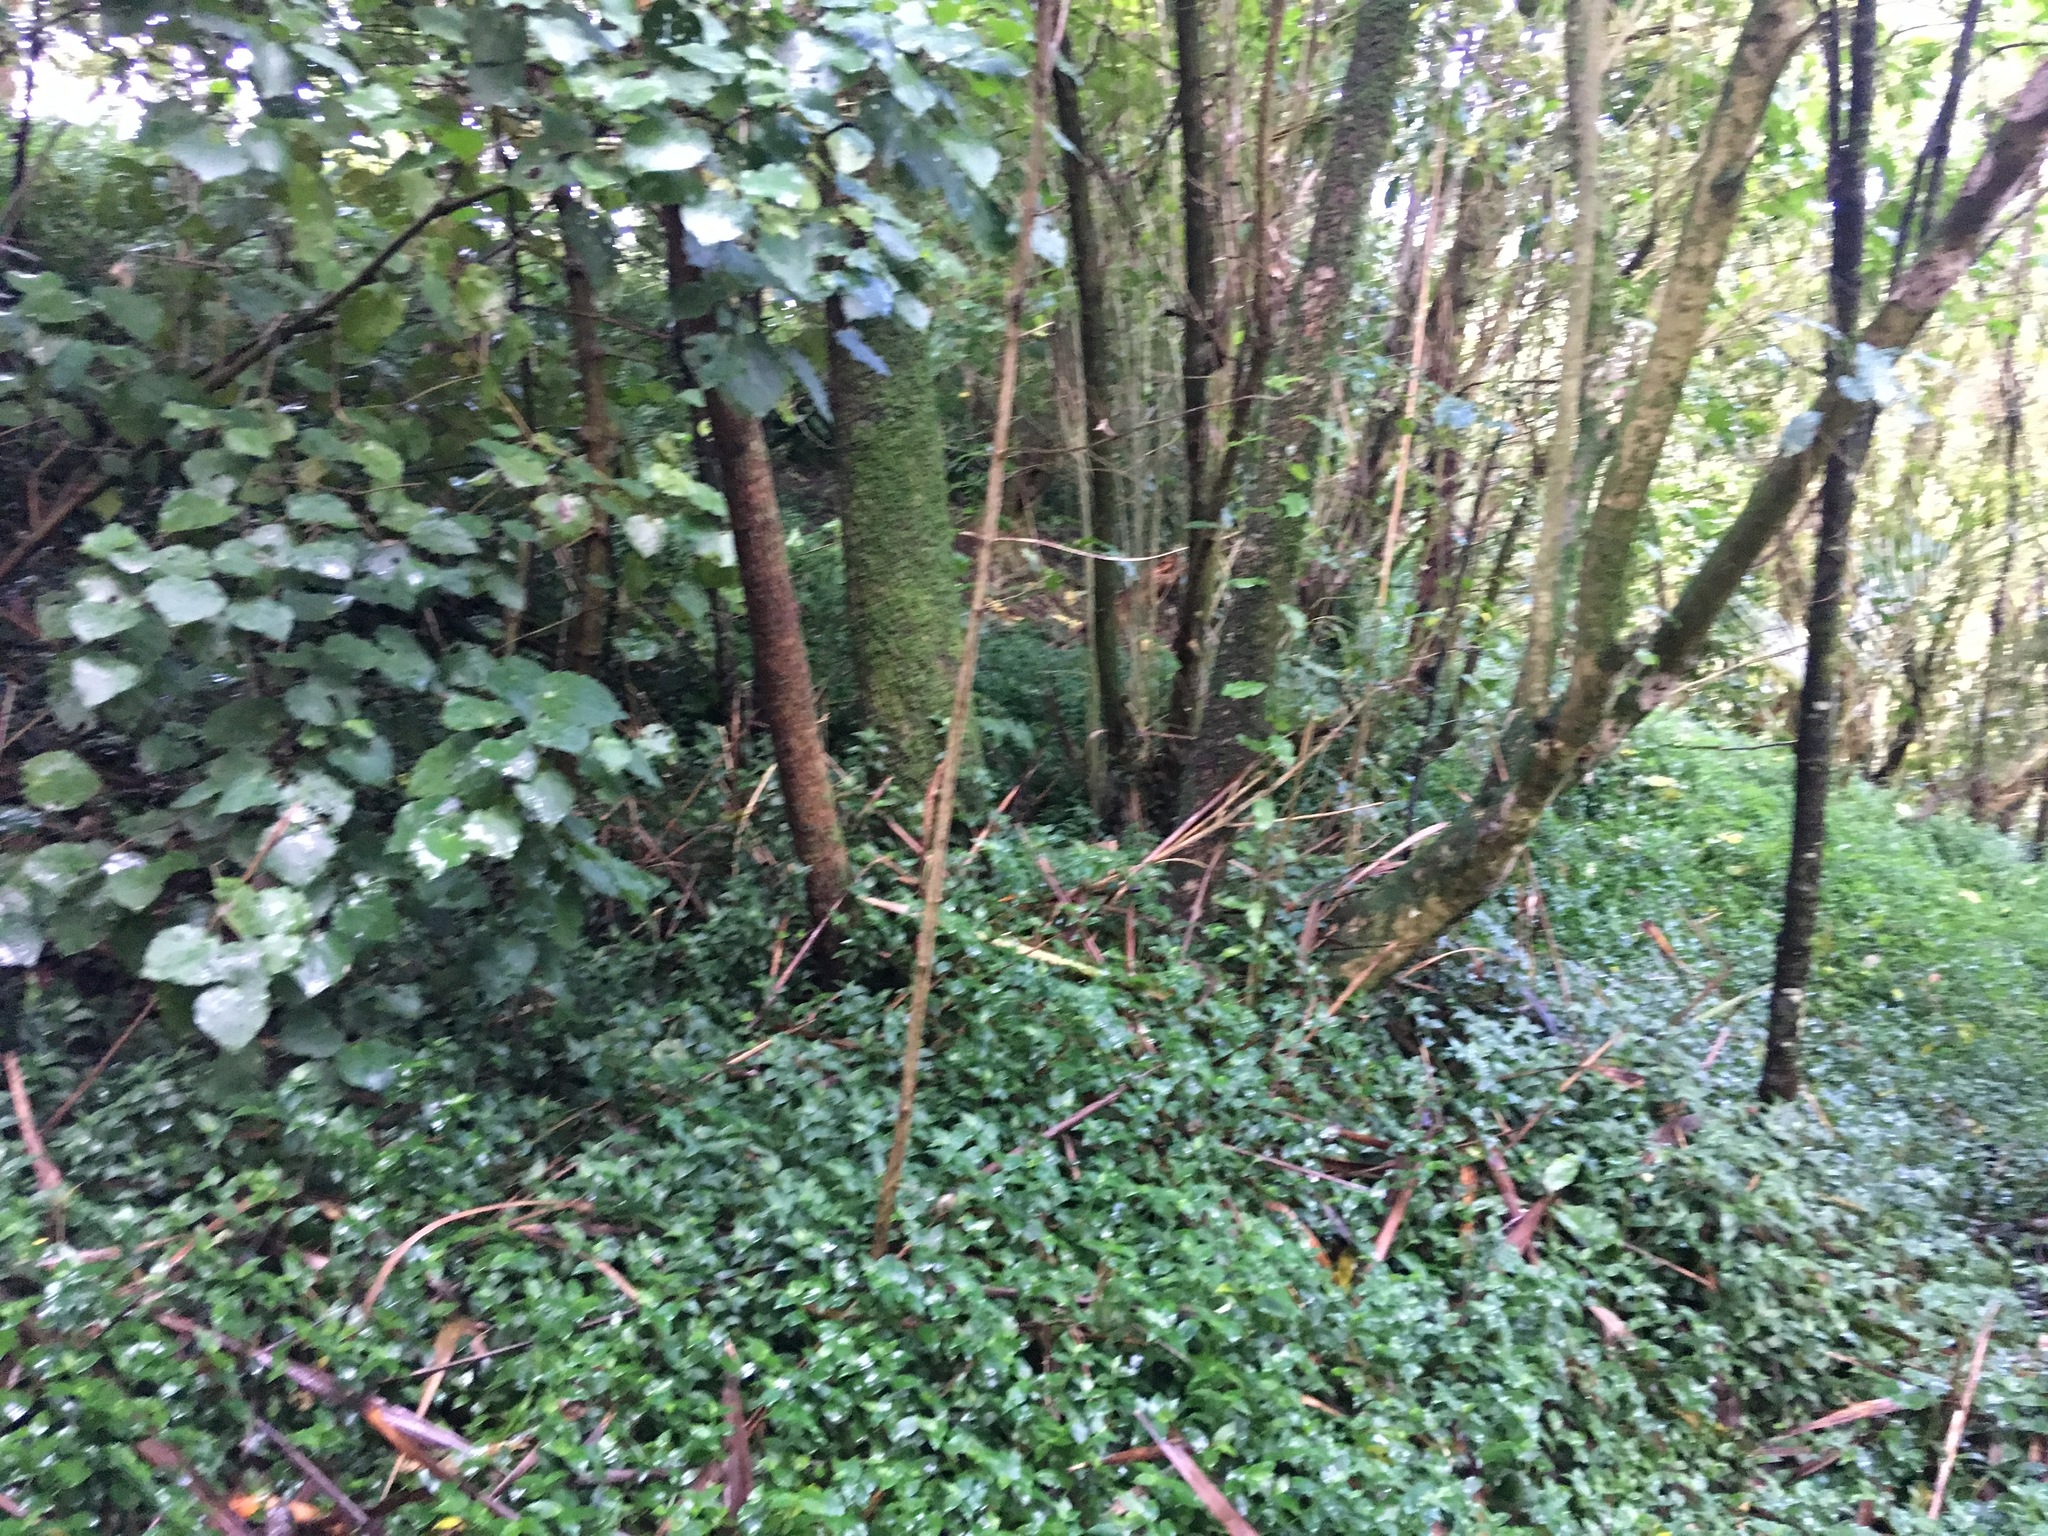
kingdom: Plantae
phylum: Tracheophyta
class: Liliopsida
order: Commelinales
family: Commelinaceae
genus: Tradescantia
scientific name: Tradescantia fluminensis
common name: Wandering-jew
